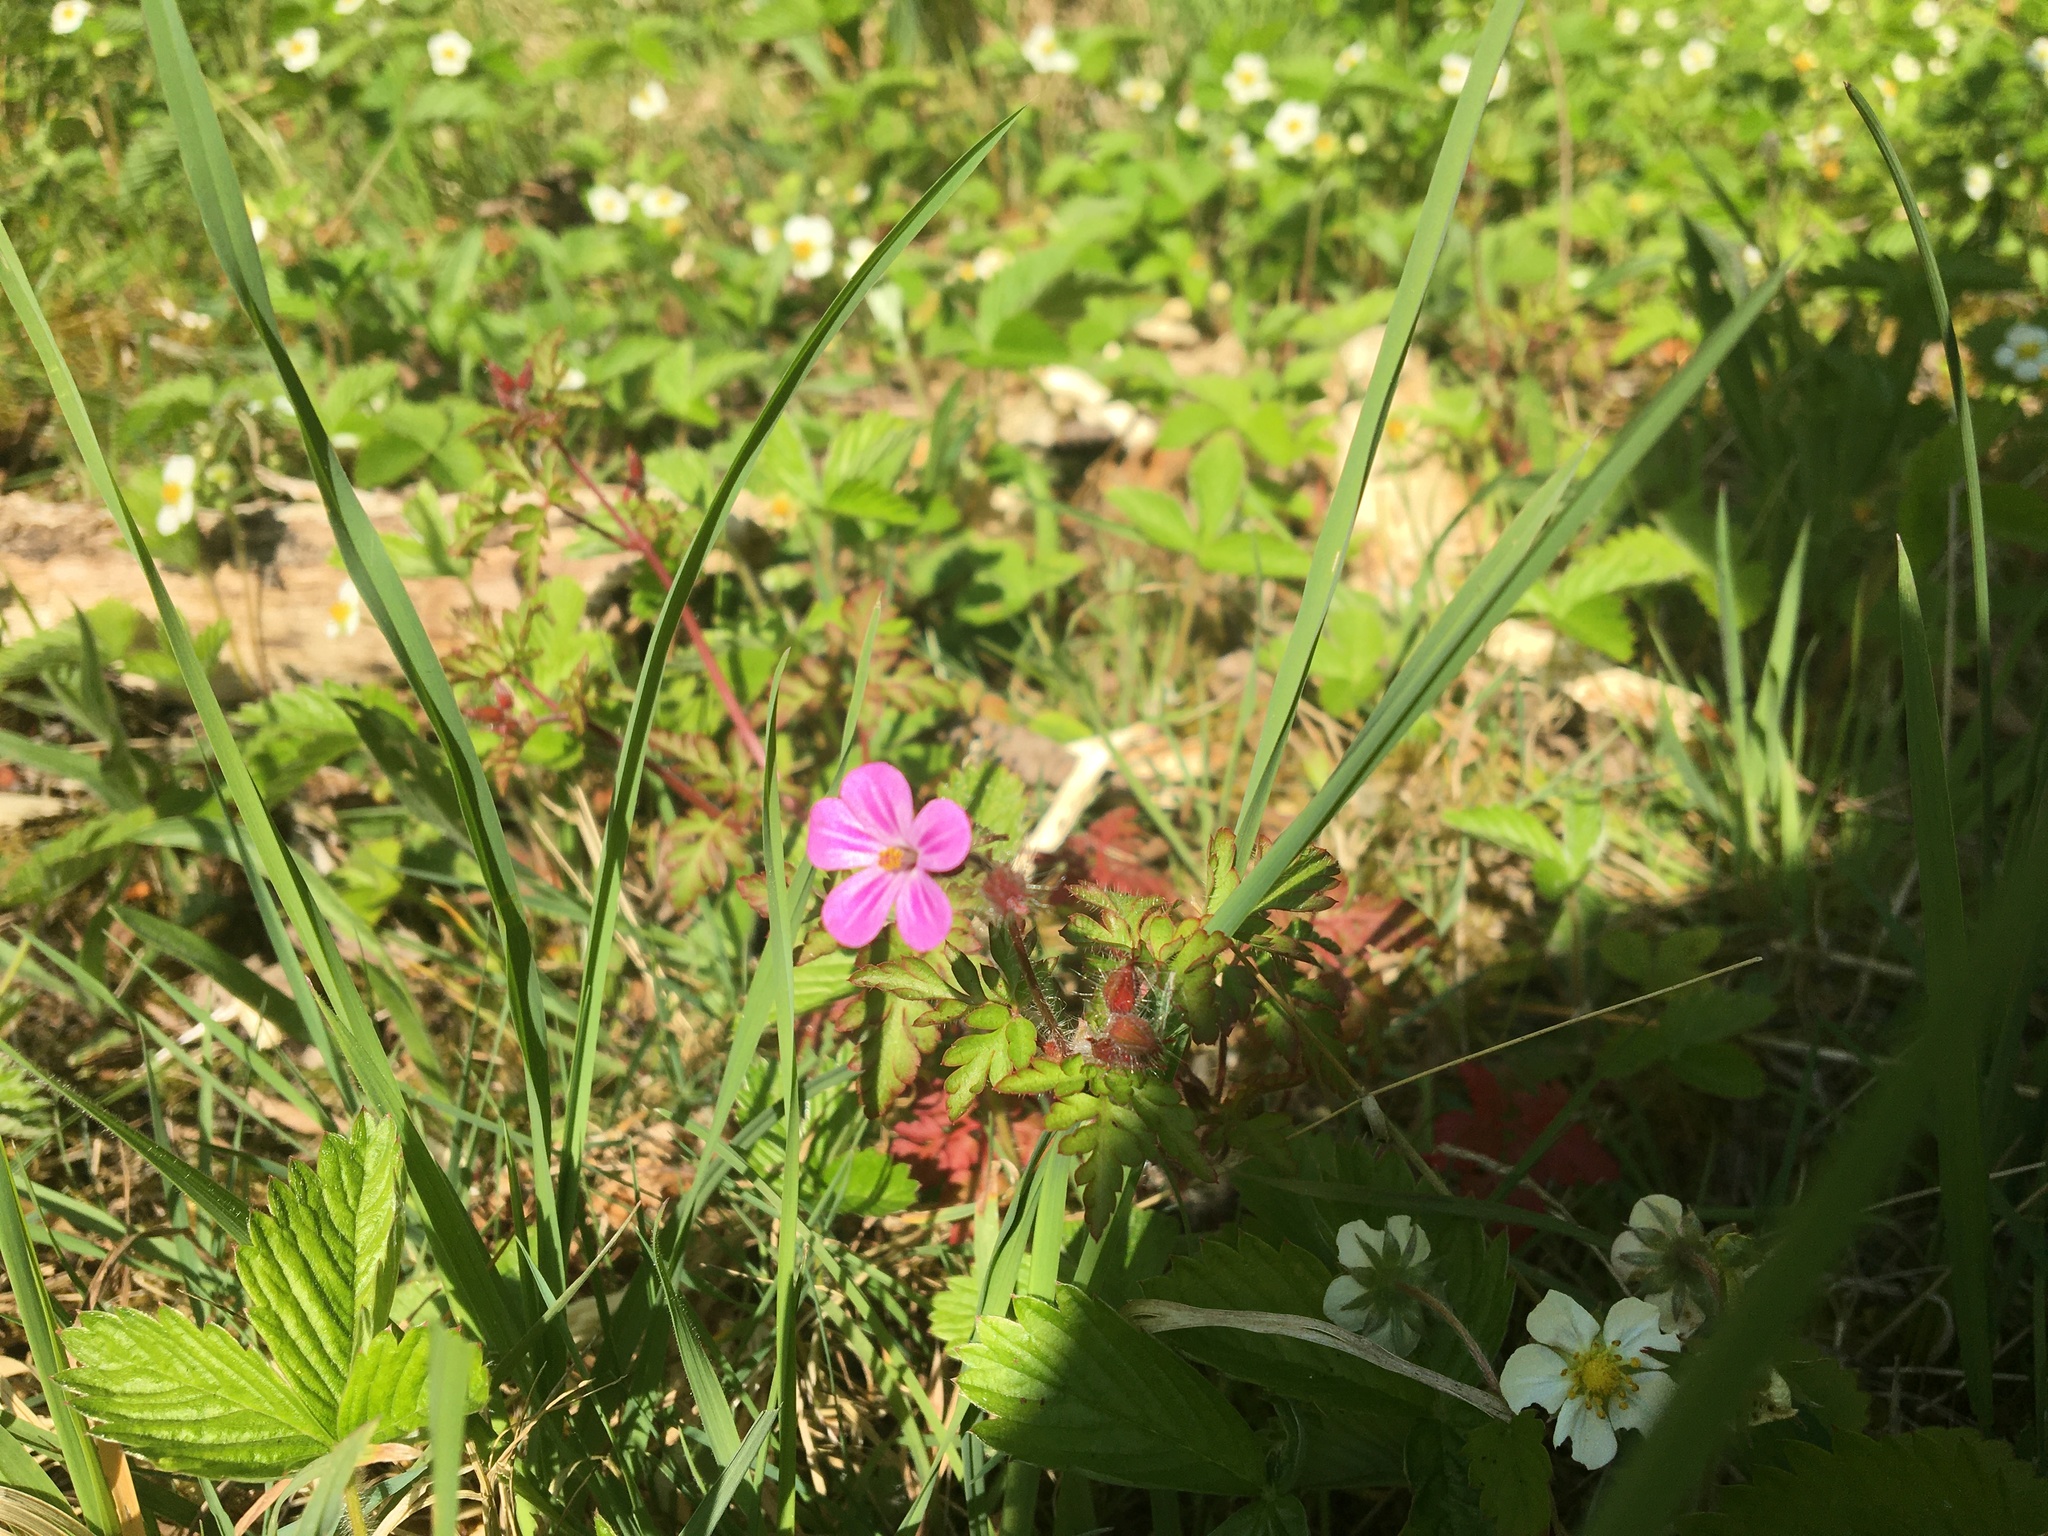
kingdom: Plantae
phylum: Tracheophyta
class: Magnoliopsida
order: Geraniales
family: Geraniaceae
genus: Geranium
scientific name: Geranium robertianum
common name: Herb-robert
